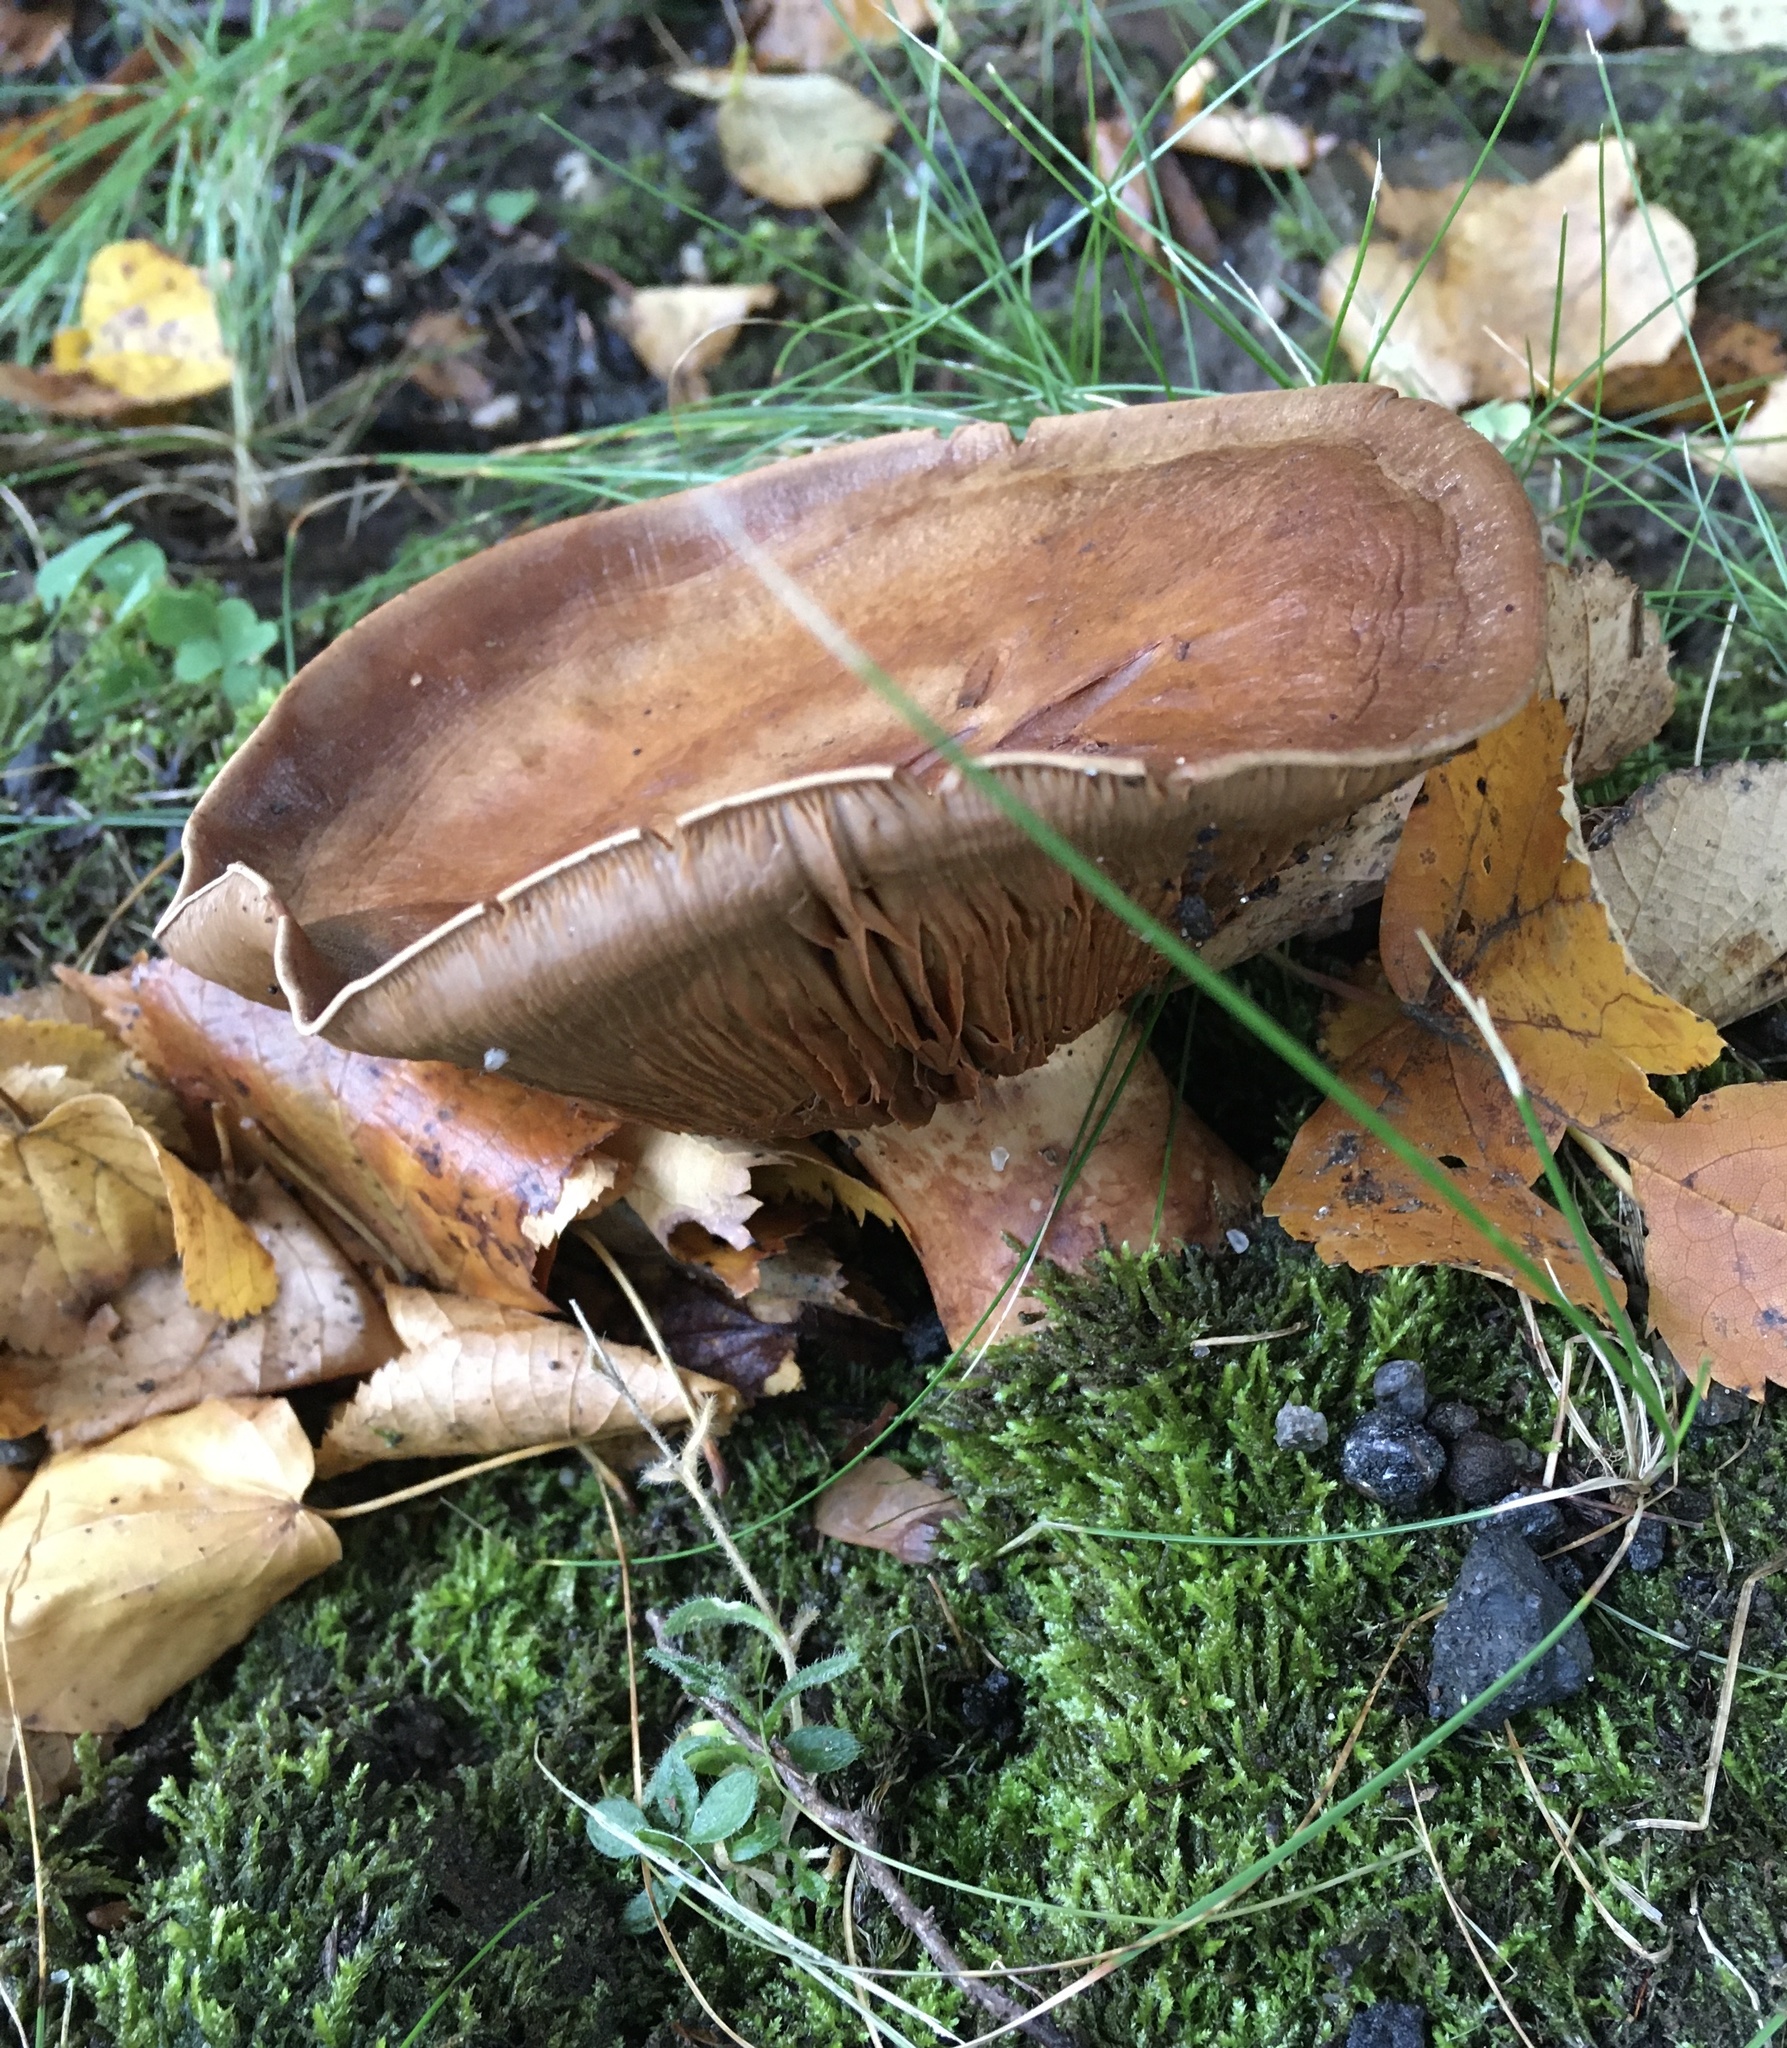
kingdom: Fungi
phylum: Basidiomycota
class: Agaricomycetes
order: Agaricales
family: Cortinariaceae
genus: Phlegmacium
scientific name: Phlegmacium balteatocumatile
